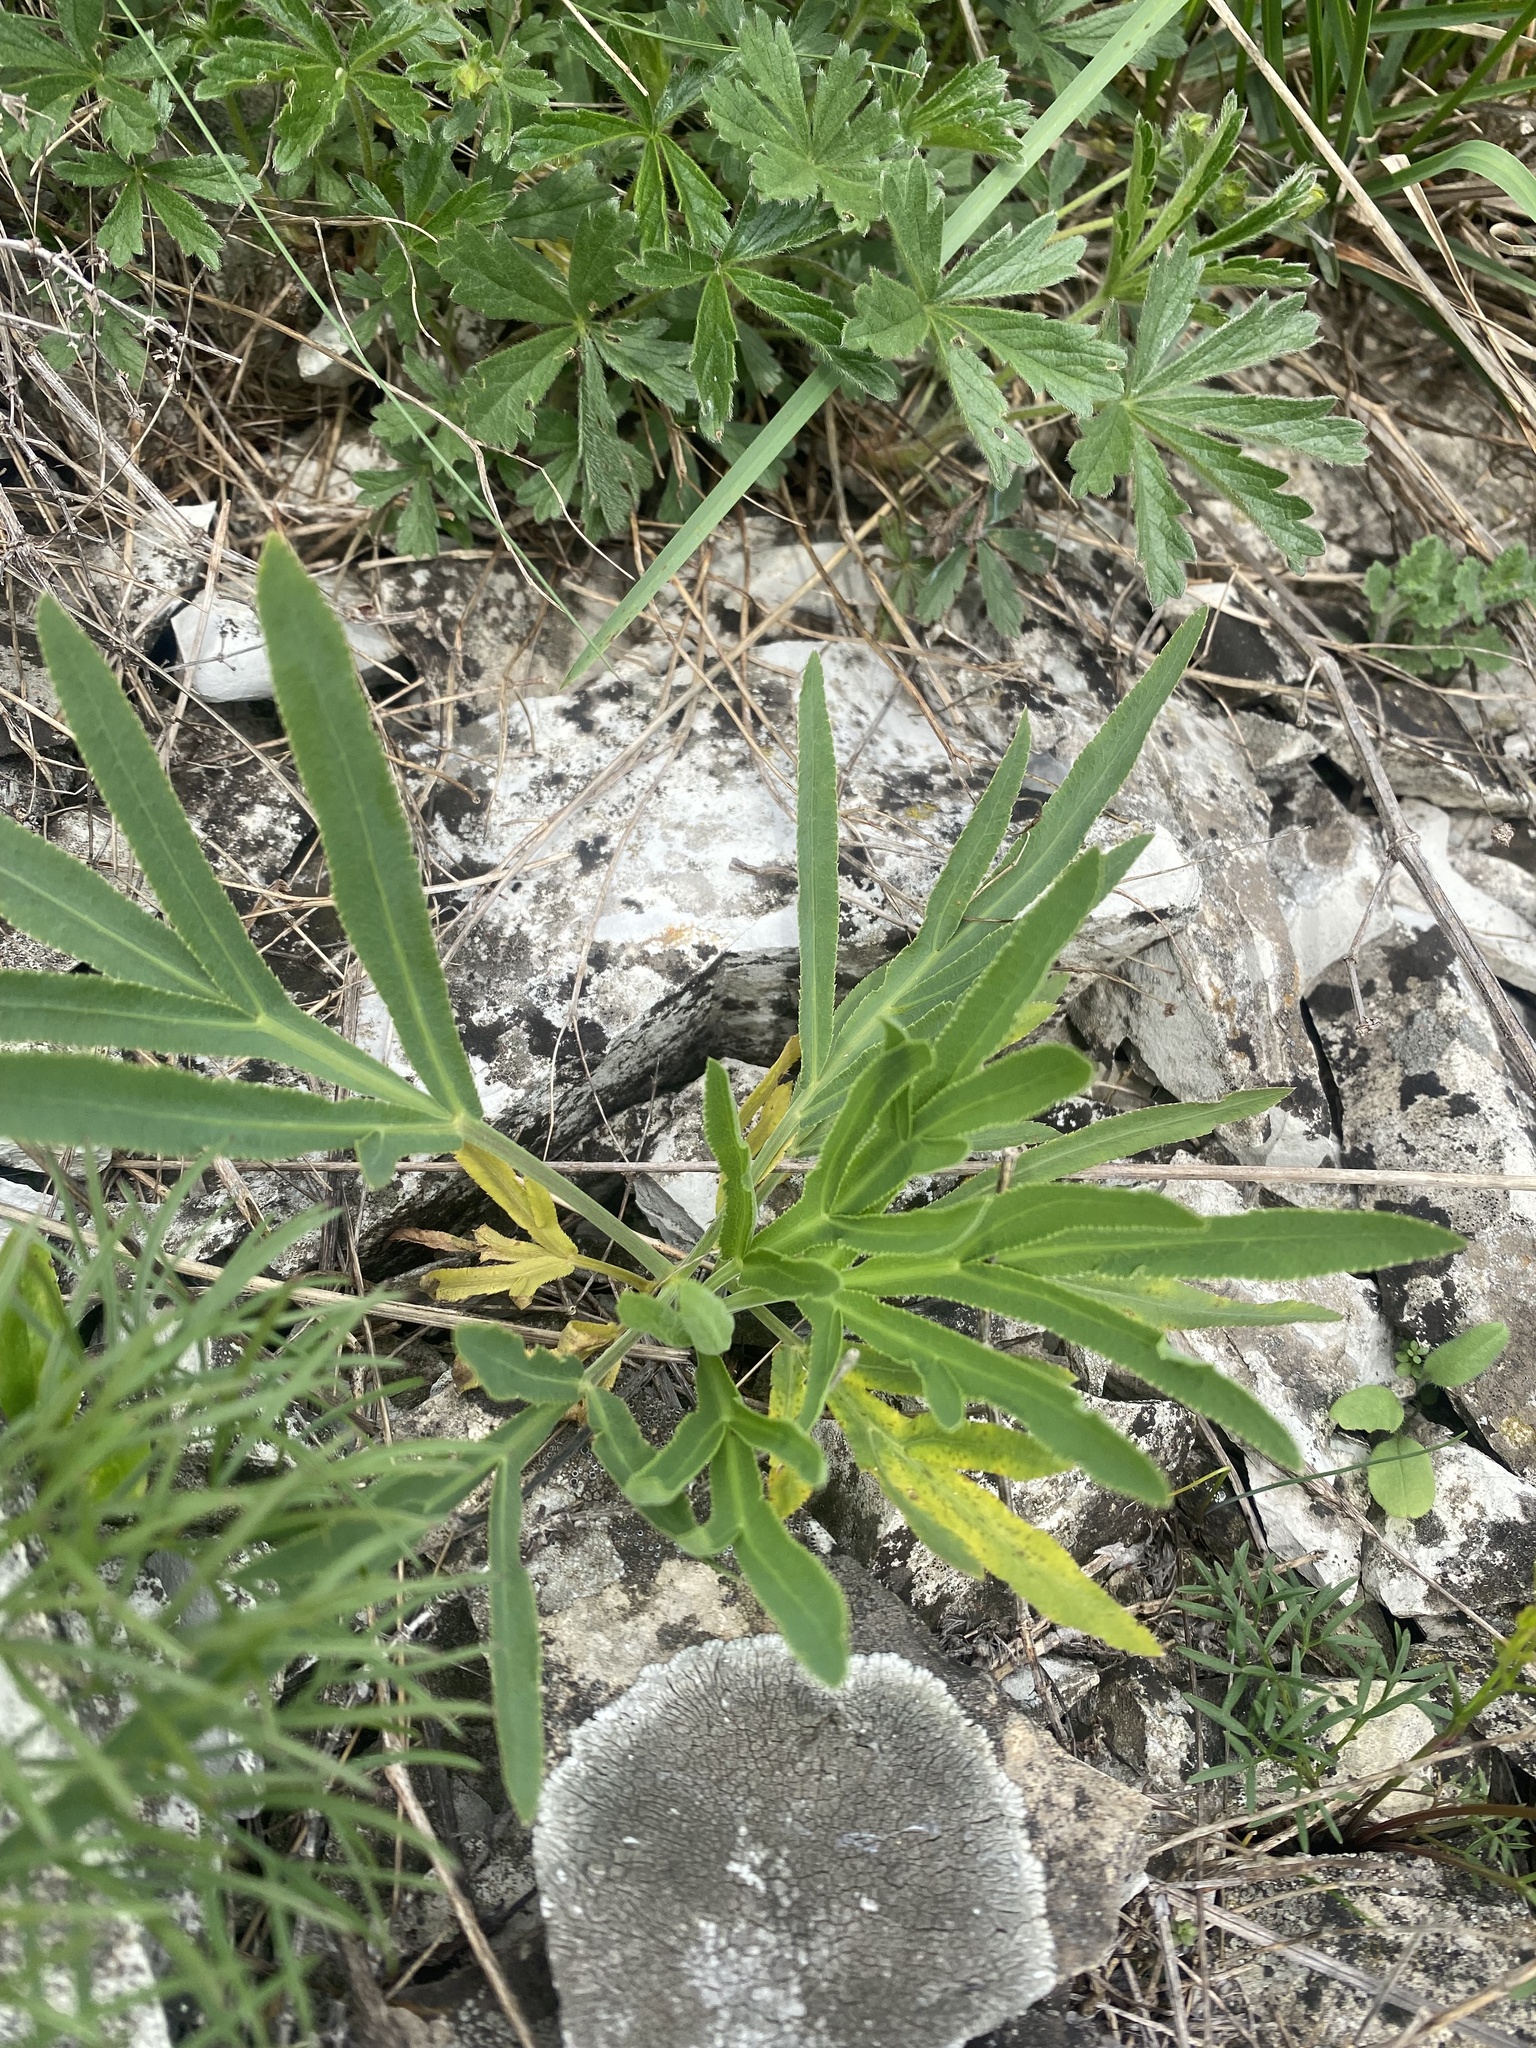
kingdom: Plantae
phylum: Tracheophyta
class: Magnoliopsida
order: Apiales
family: Apiaceae
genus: Falcaria
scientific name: Falcaria vulgaris
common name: Longleaf
